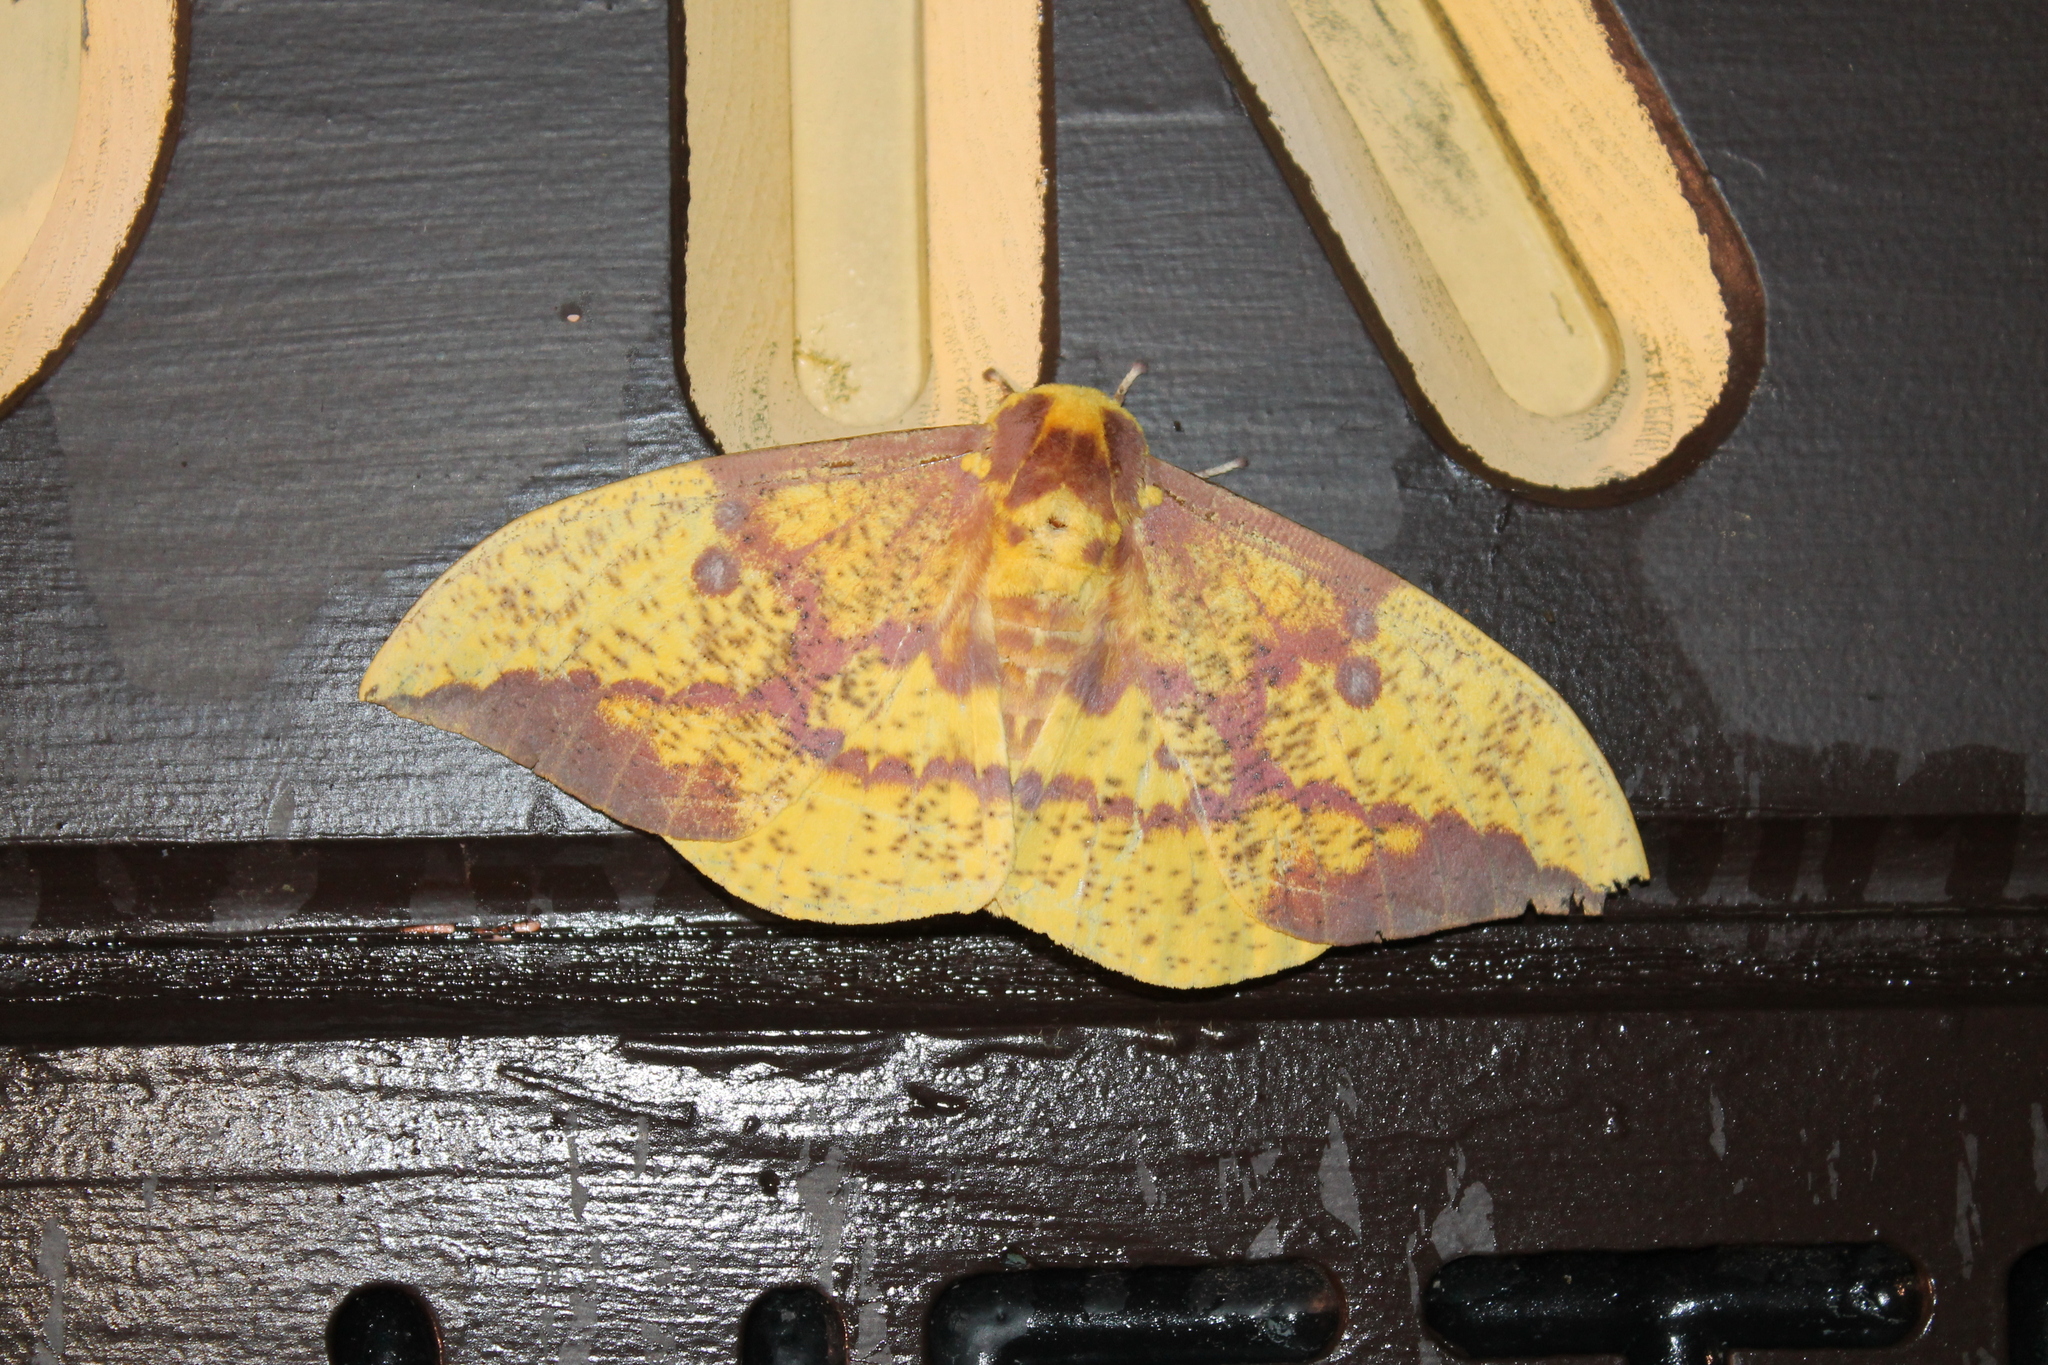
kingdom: Animalia
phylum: Arthropoda
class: Insecta
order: Lepidoptera
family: Saturniidae
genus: Eacles
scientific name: Eacles imperialis
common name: Imperial moth
